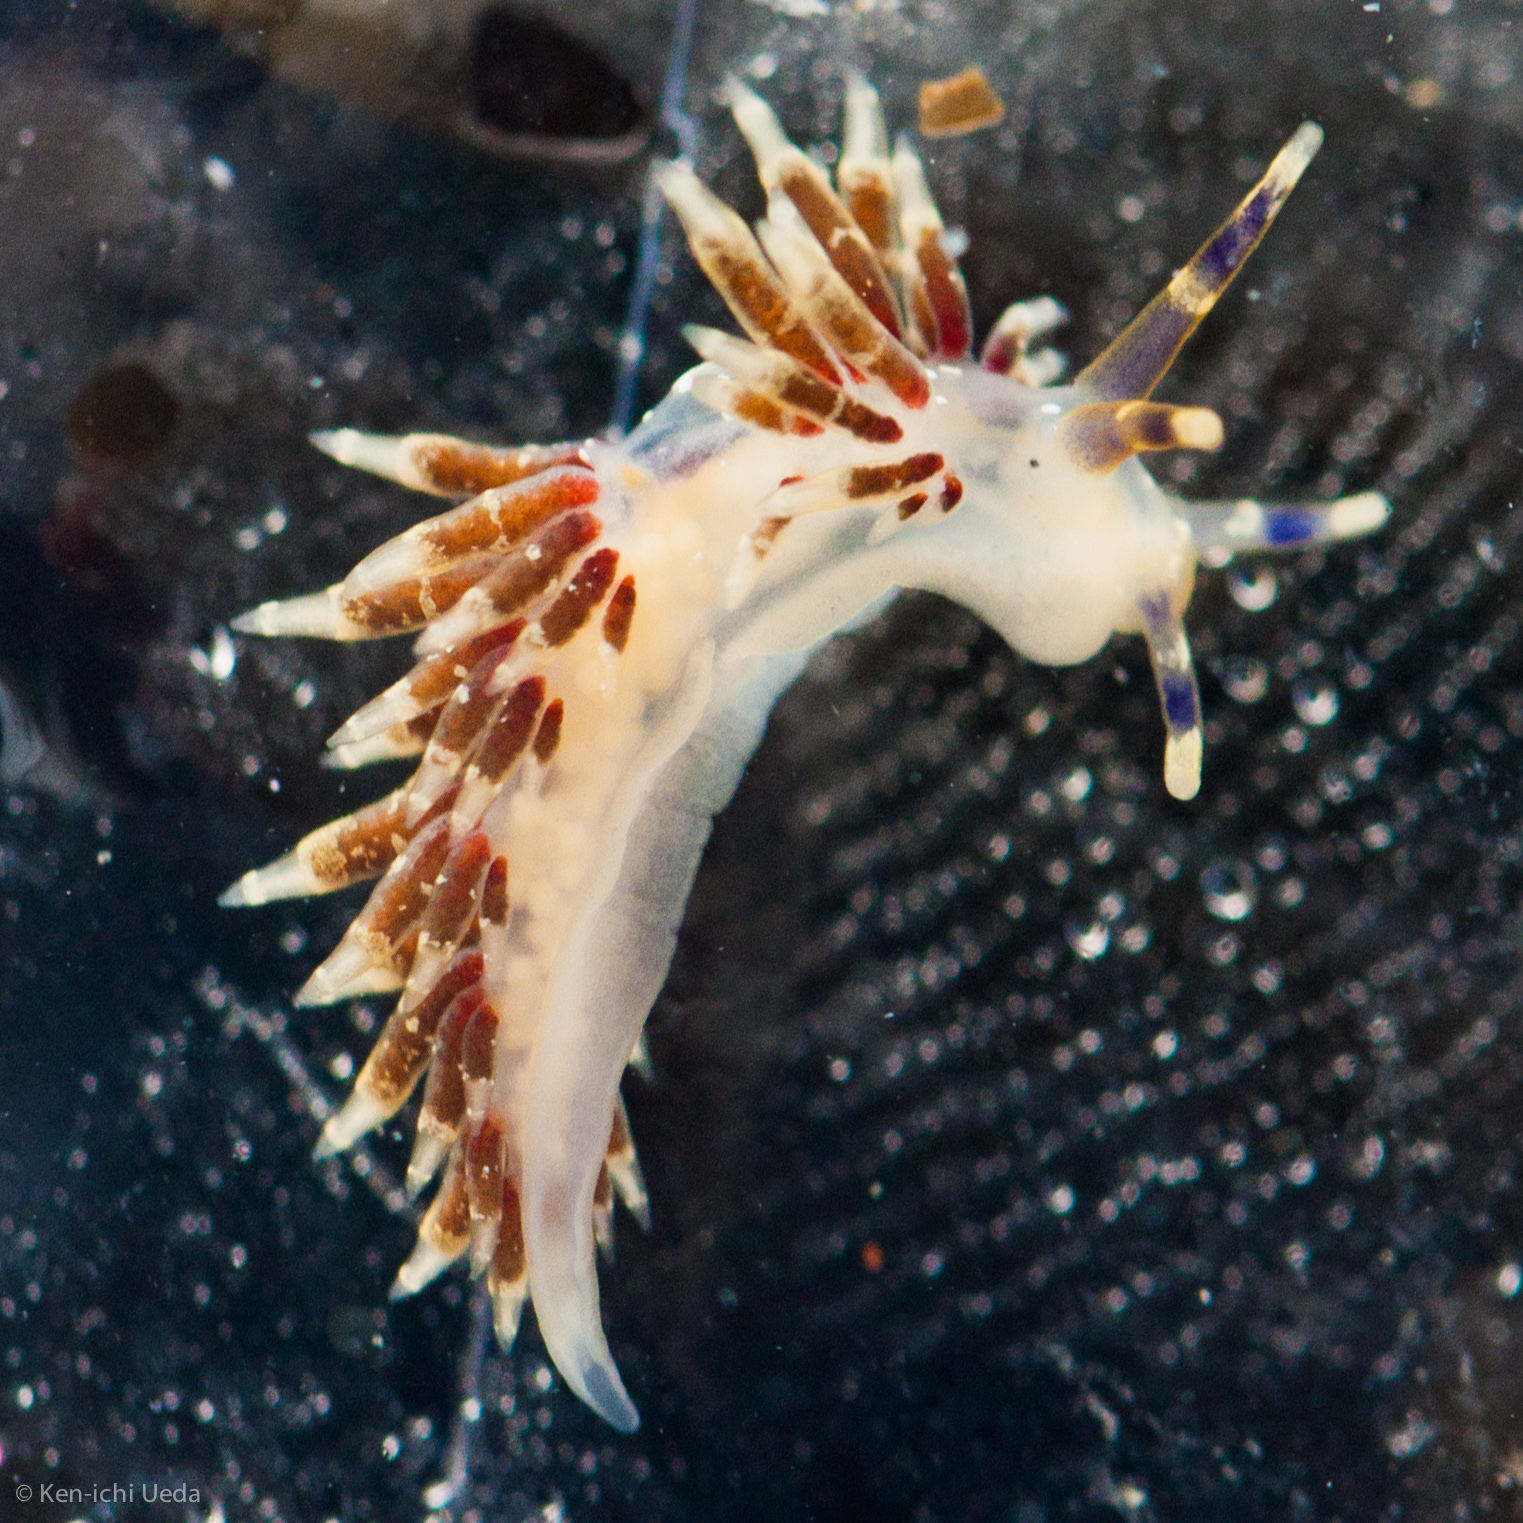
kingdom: Animalia
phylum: Mollusca
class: Gastropoda
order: Nudibranchia
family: Abronicidae
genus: Abronica
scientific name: Abronica abronia
